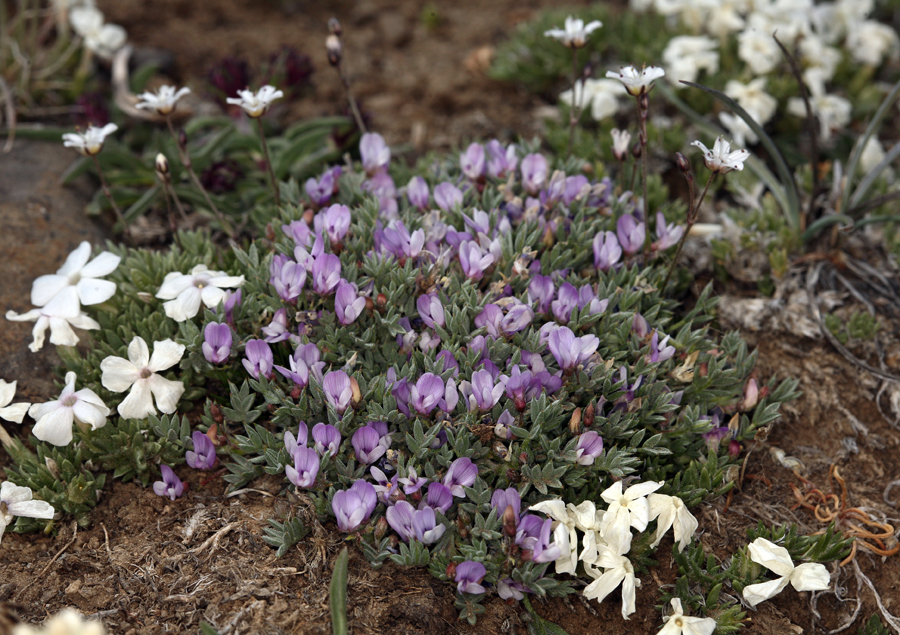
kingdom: Plantae
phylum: Tracheophyta
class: Magnoliopsida
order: Fabales
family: Fabaceae
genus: Astragalus
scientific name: Astragalus kentrophyta
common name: Prickly milk-vetch
